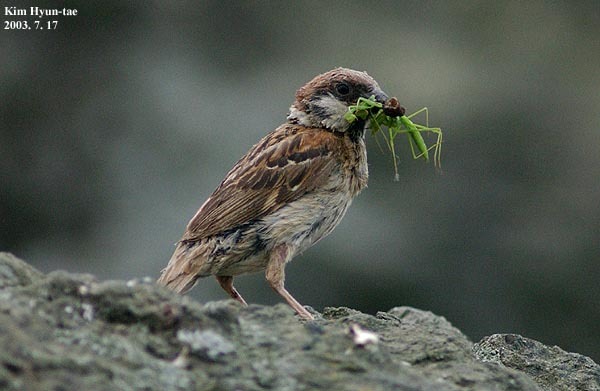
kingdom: Animalia
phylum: Chordata
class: Aves
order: Passeriformes
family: Passeridae
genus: Passer
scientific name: Passer montanus
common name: Eurasian tree sparrow
